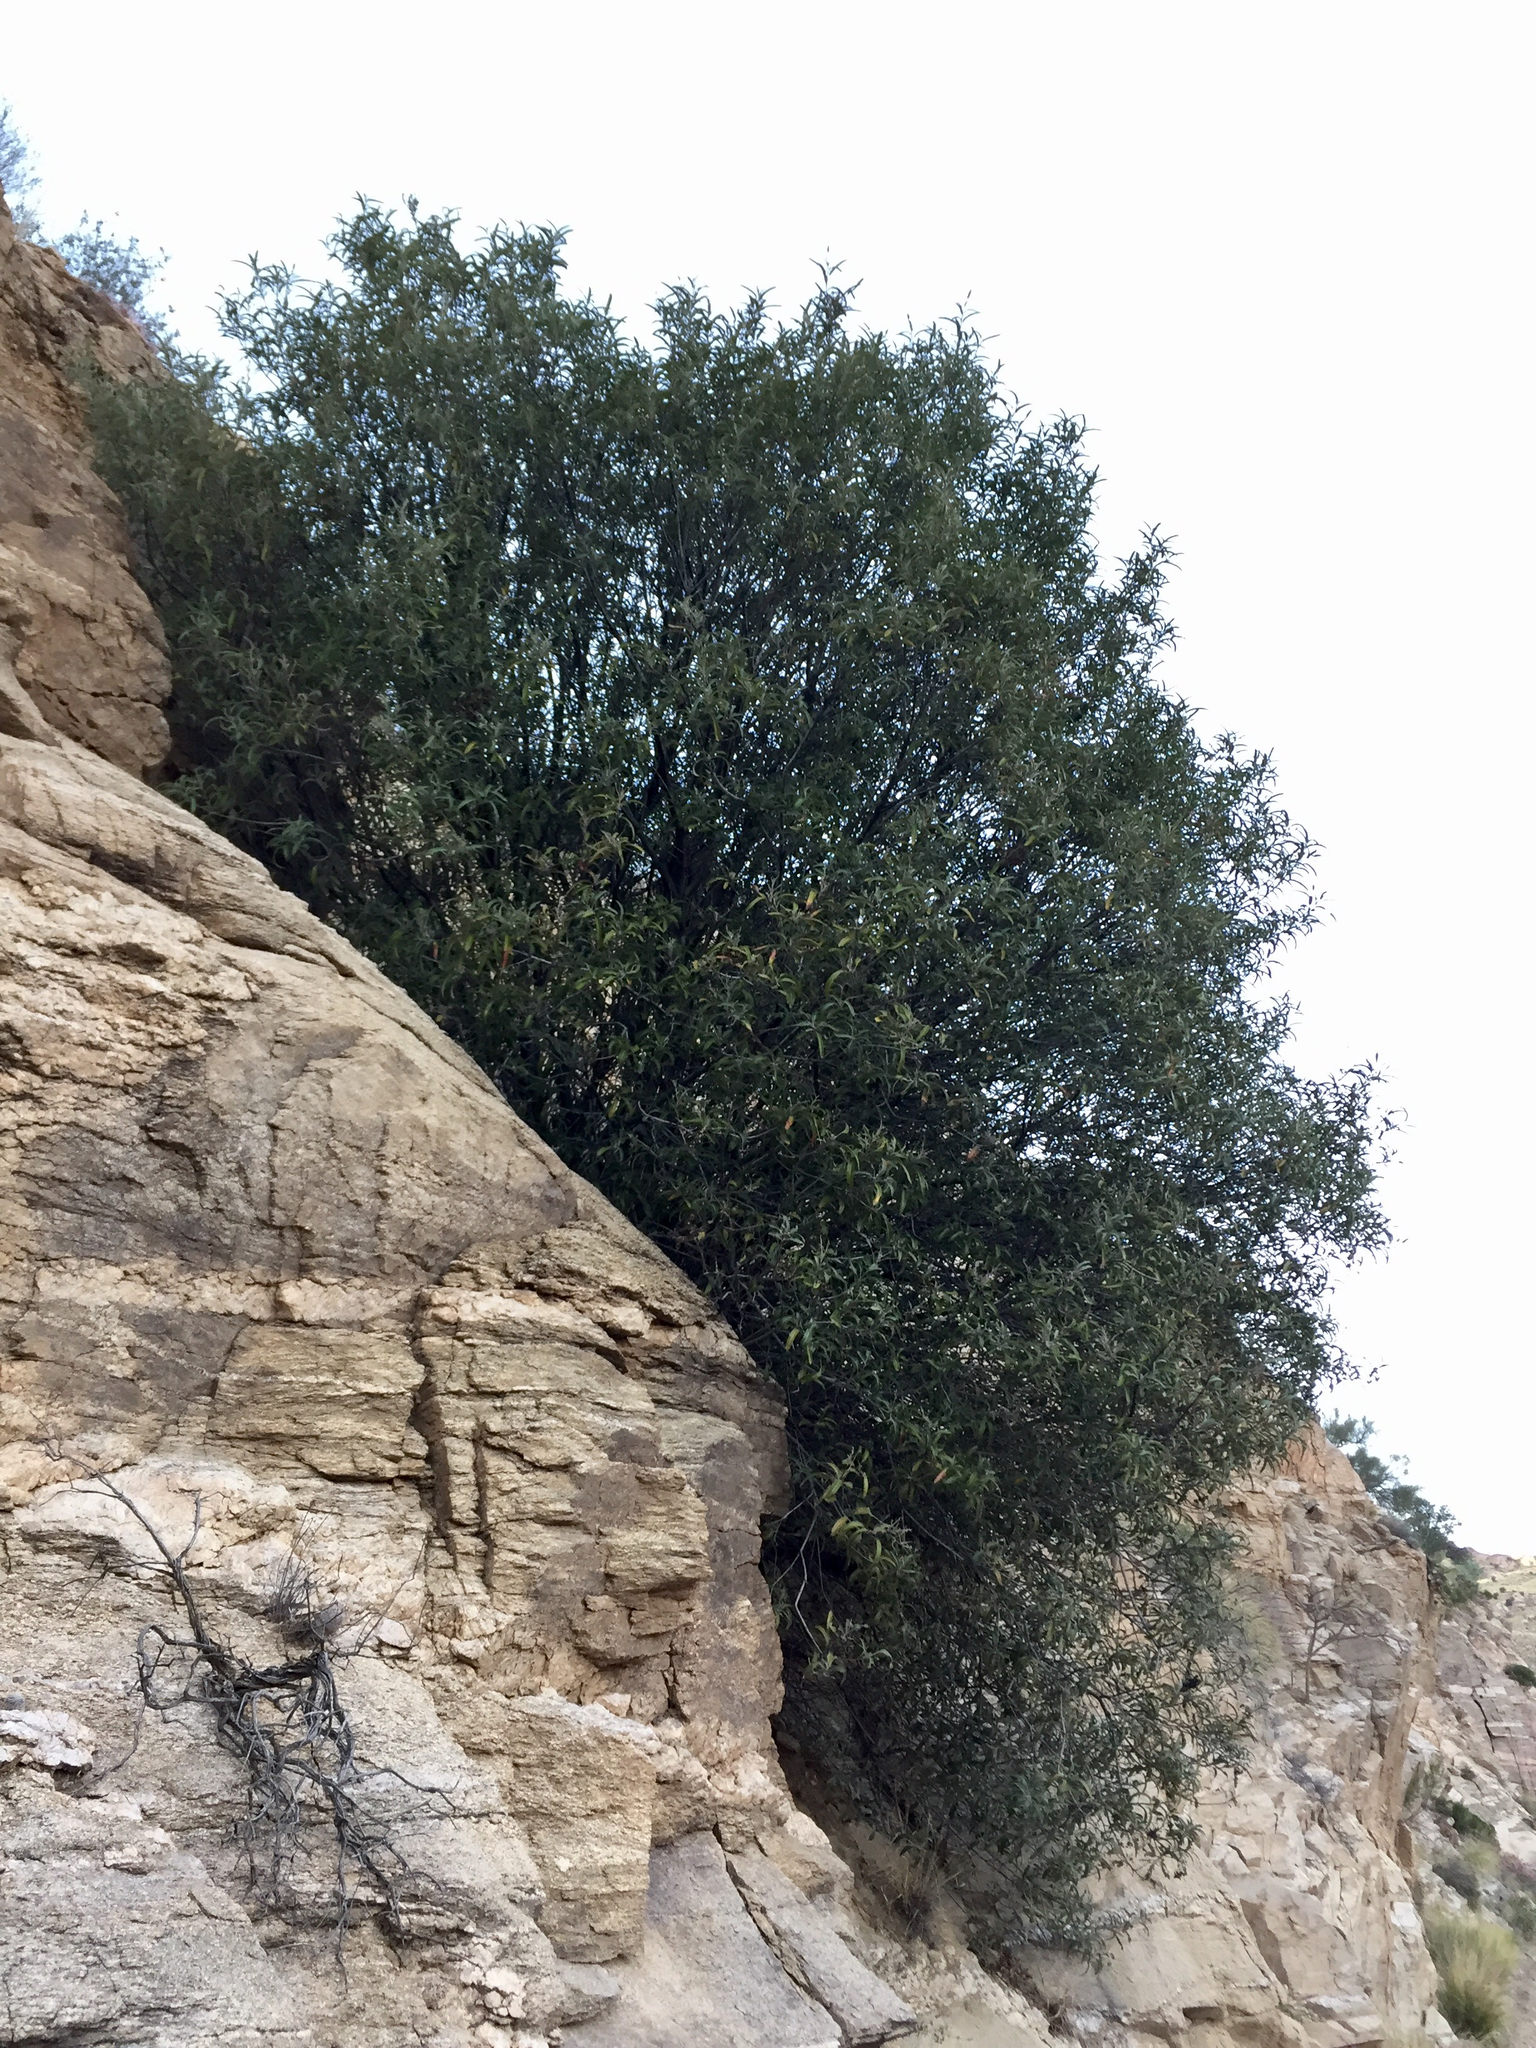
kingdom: Plantae
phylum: Tracheophyta
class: Magnoliopsida
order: Rosales
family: Rosaceae
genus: Vauquelinia
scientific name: Vauquelinia californica
